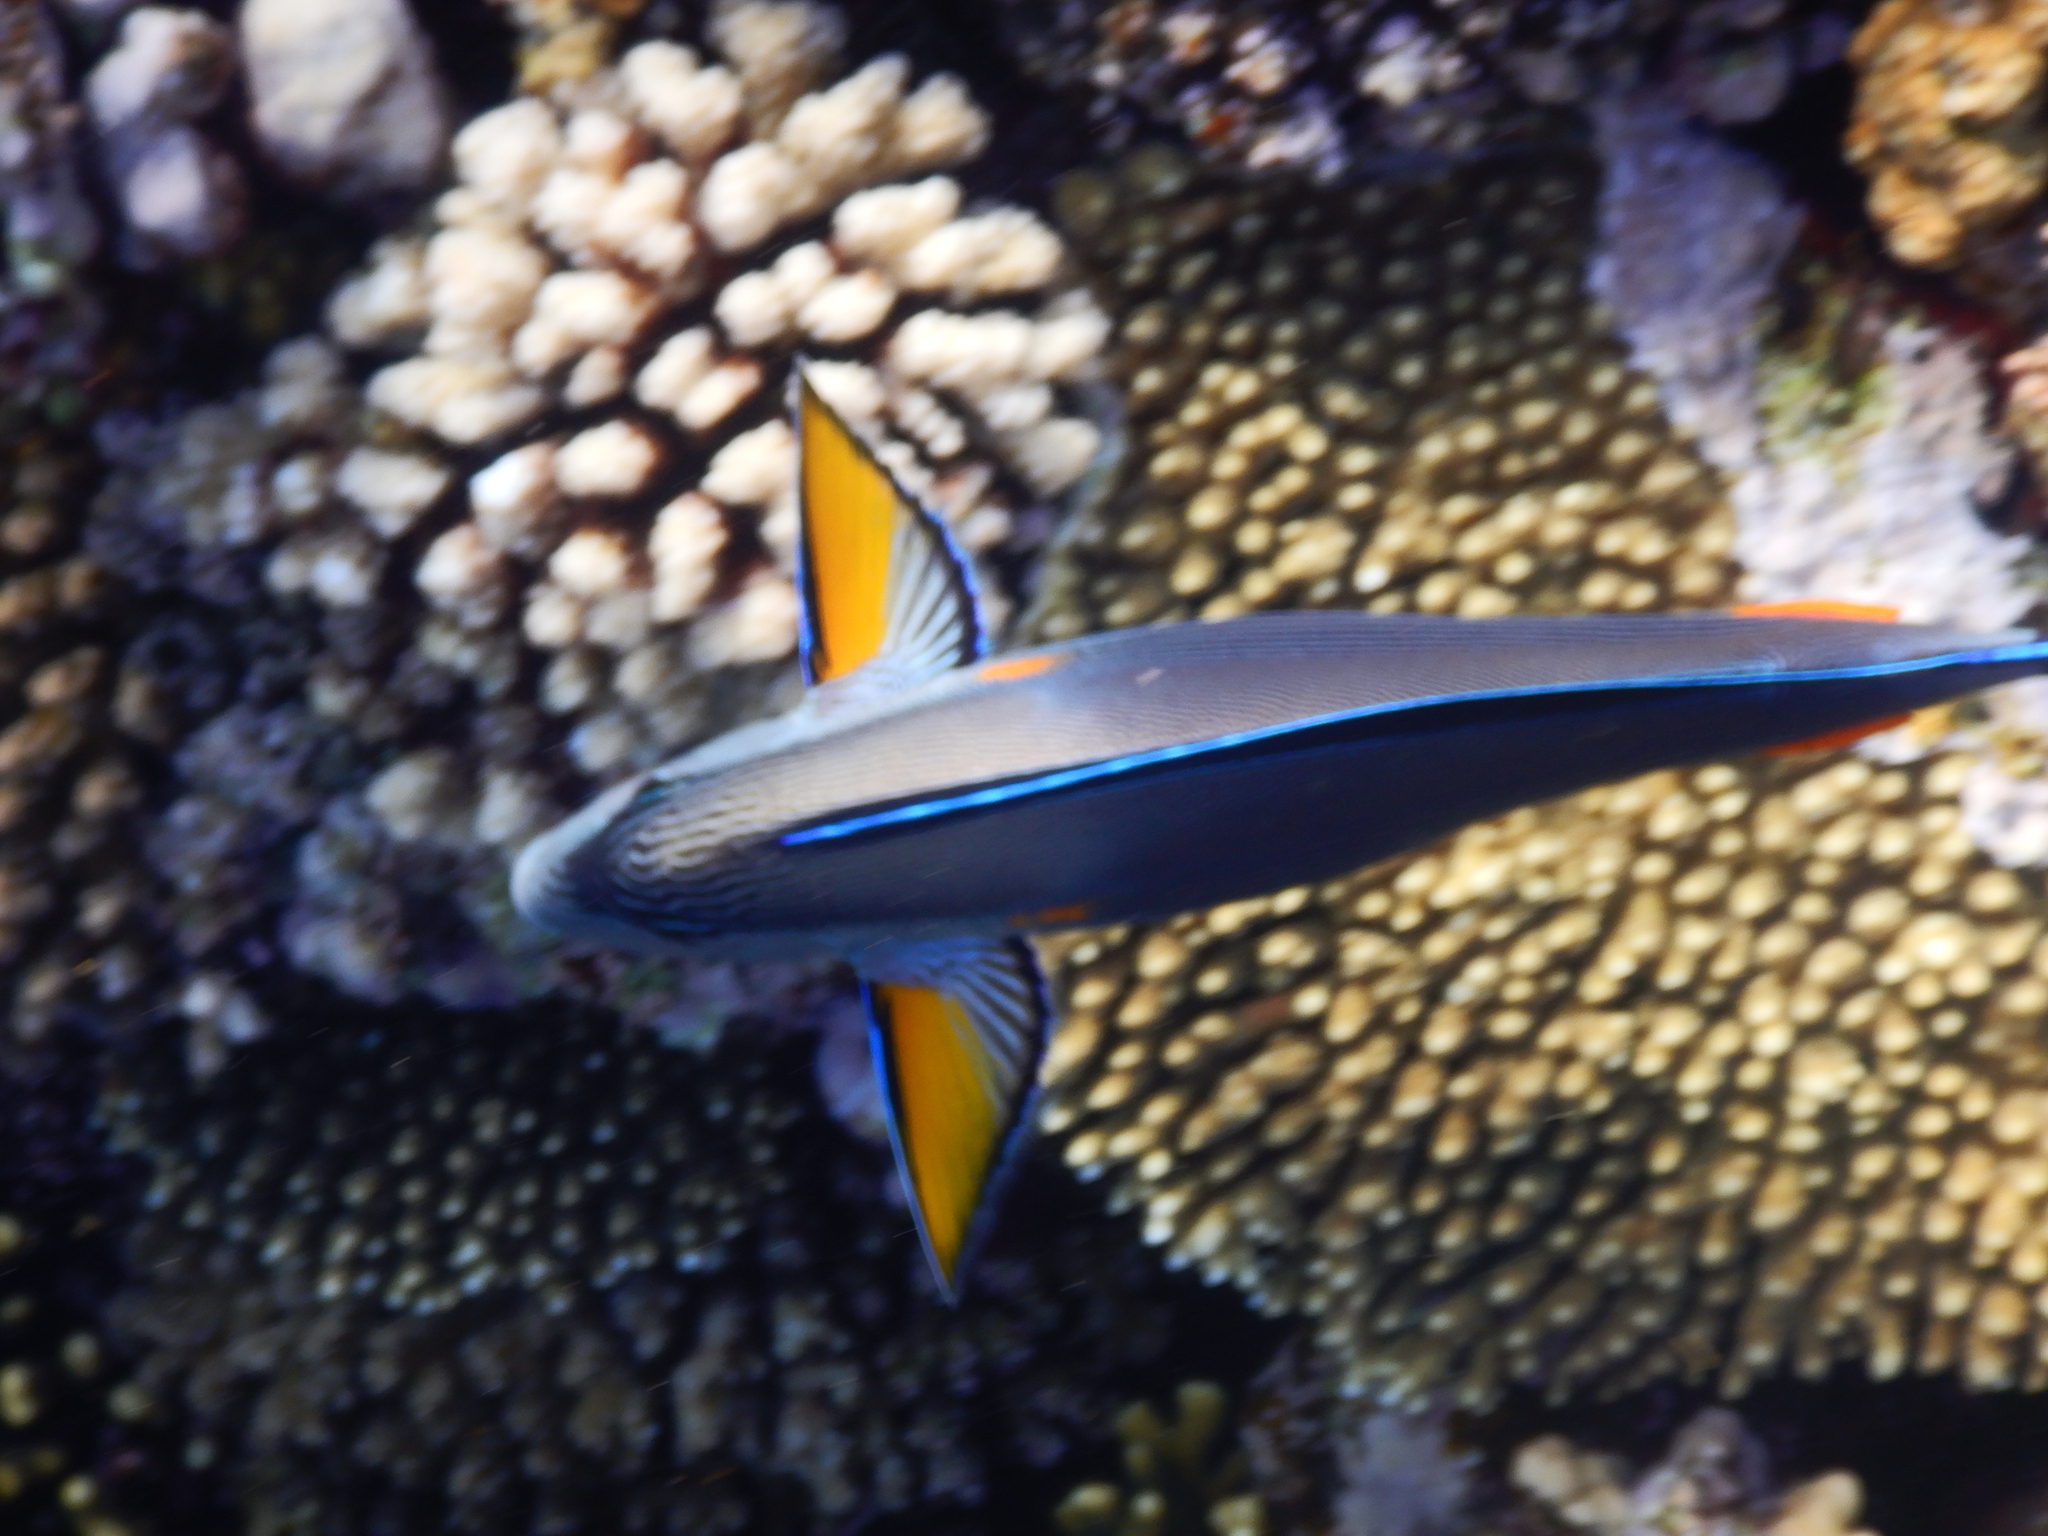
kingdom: Animalia
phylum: Chordata
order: Perciformes
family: Acanthuridae
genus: Acanthurus
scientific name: Acanthurus sohal
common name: Red sea surgeonfish
